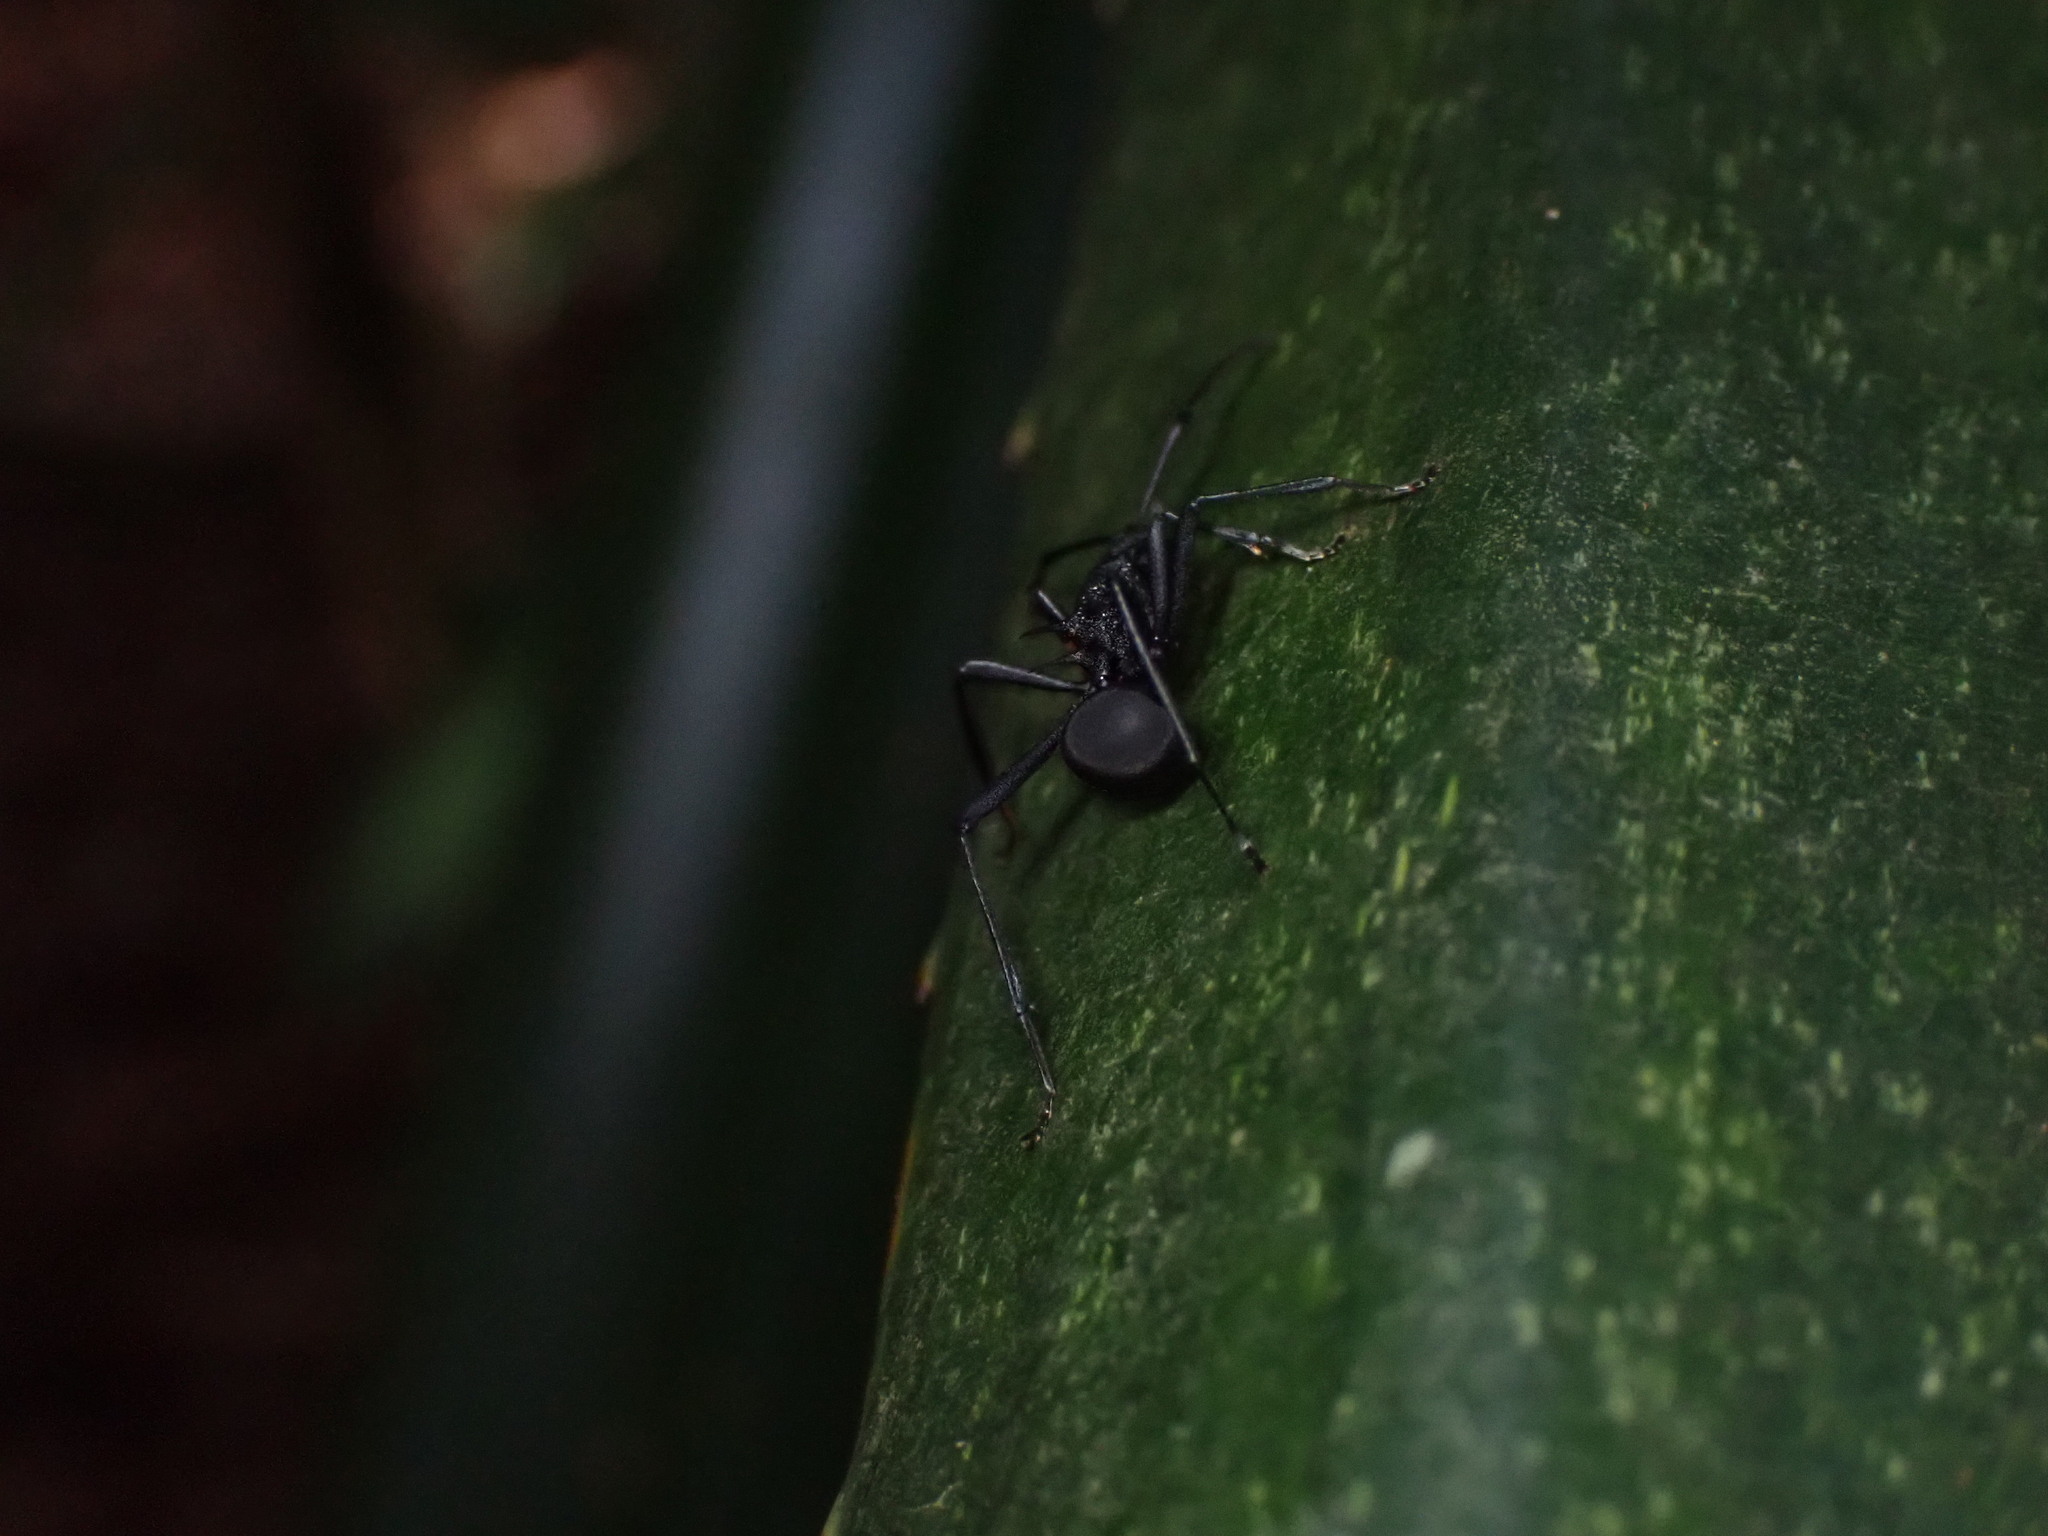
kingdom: Animalia
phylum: Arthropoda
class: Insecta
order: Hymenoptera
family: Formicidae
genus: Polyrhachis
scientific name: Polyrhachis armata
